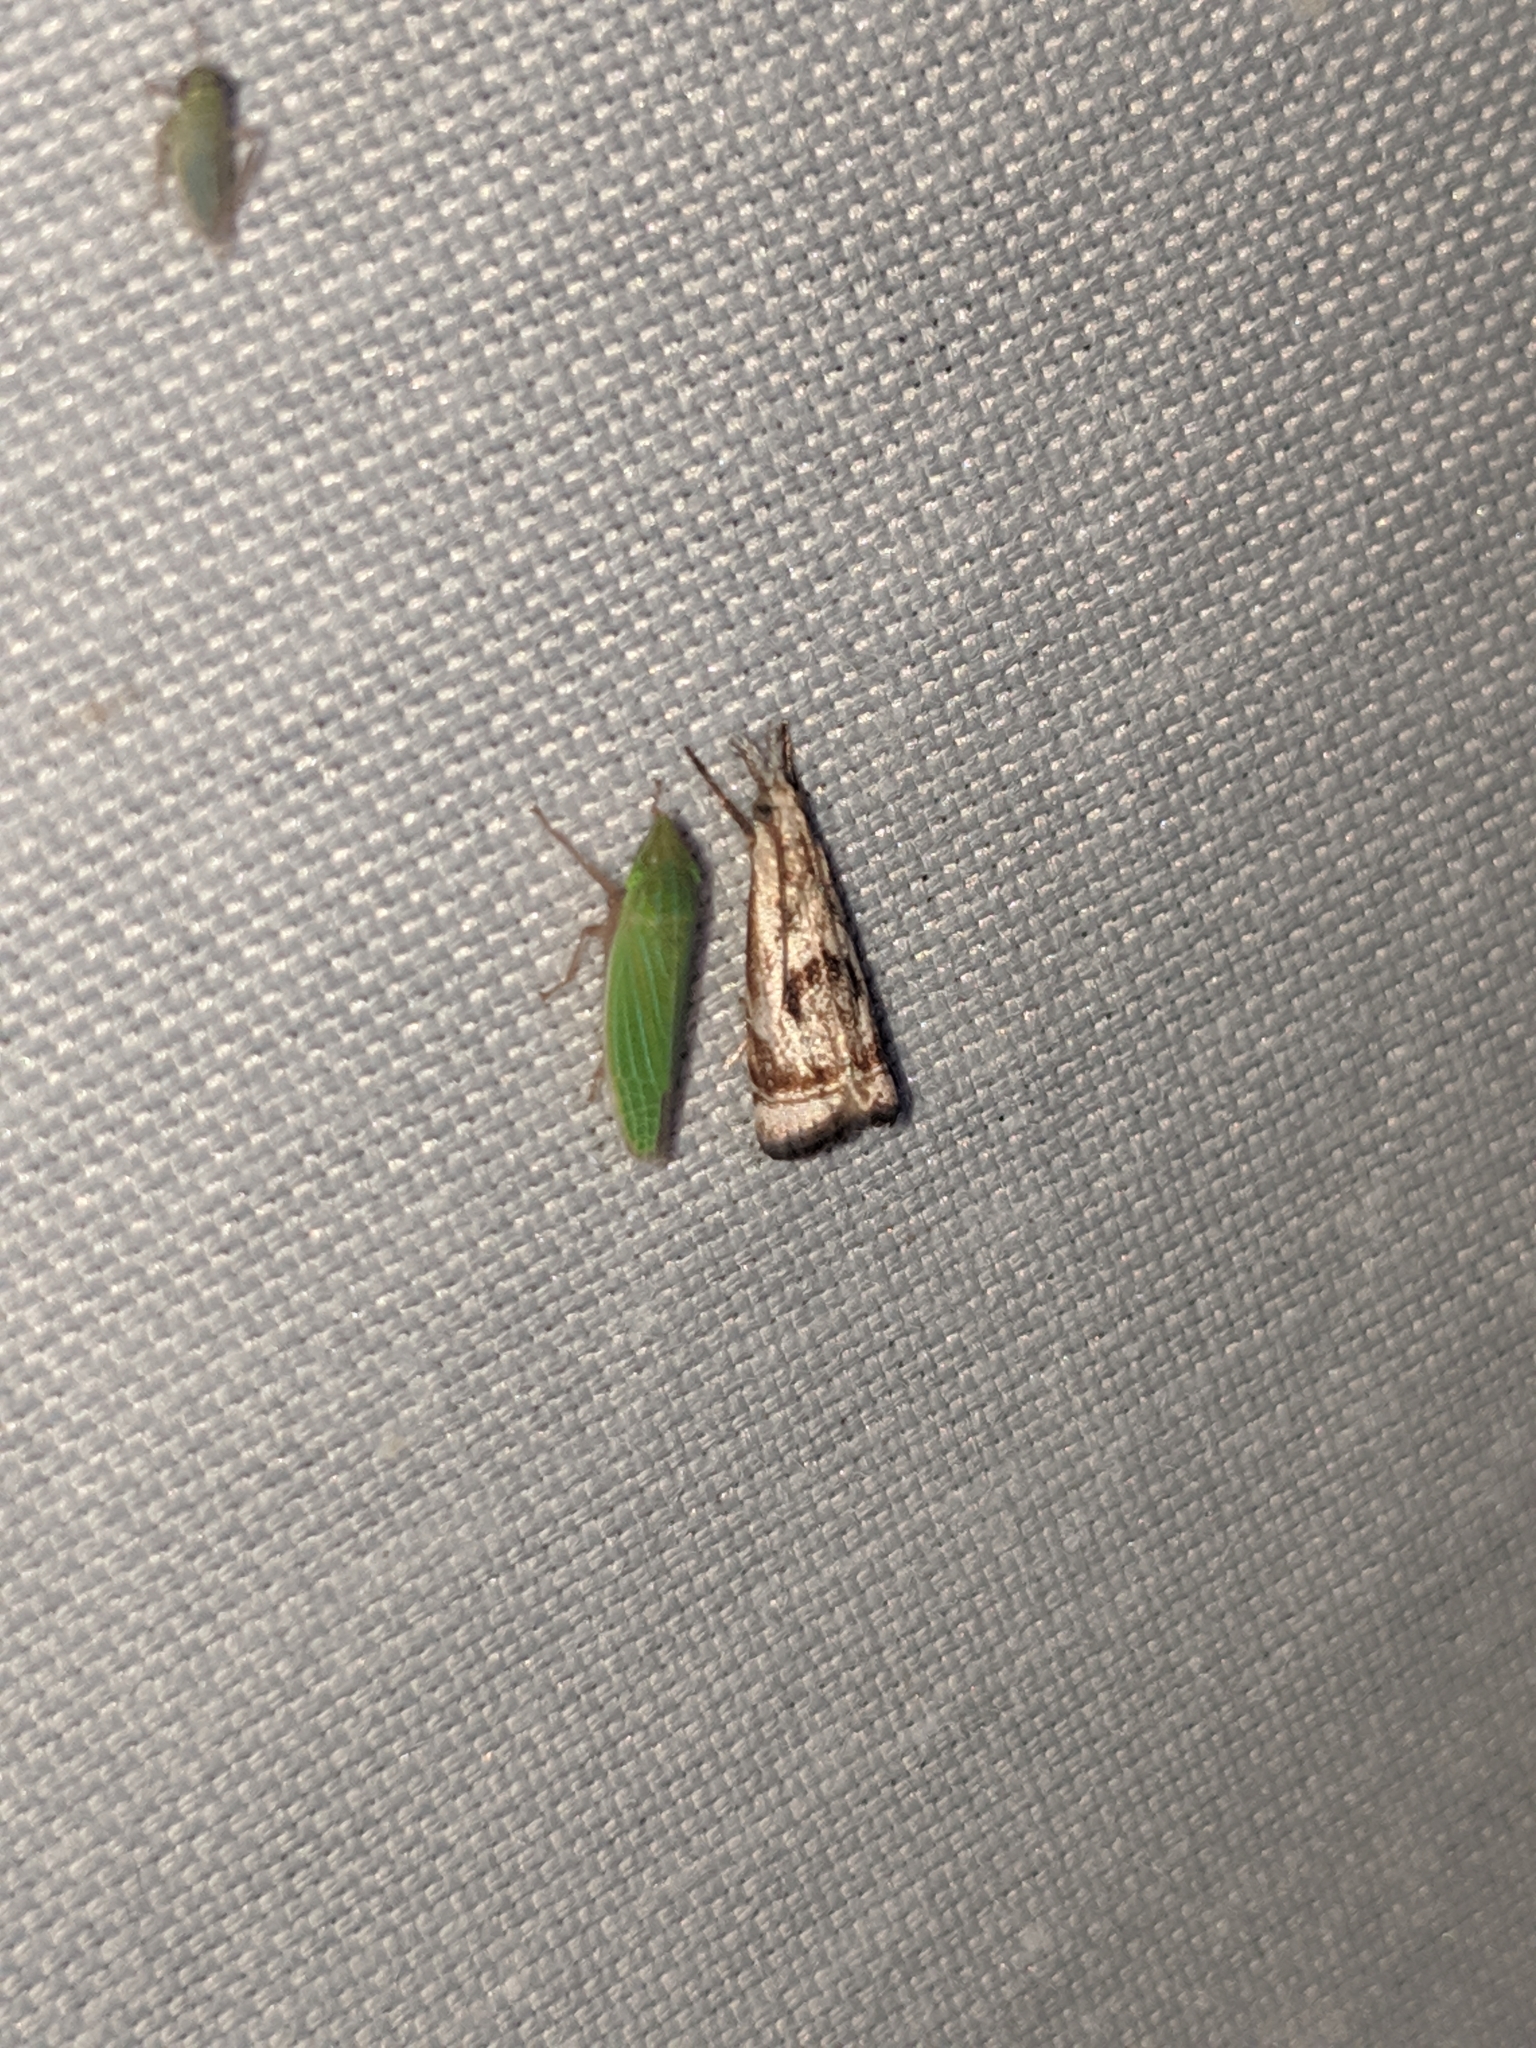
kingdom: Animalia
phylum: Arthropoda
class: Insecta
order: Lepidoptera
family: Crambidae
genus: Microcrambus
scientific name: Microcrambus elegans
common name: Elegant grass-veneer
